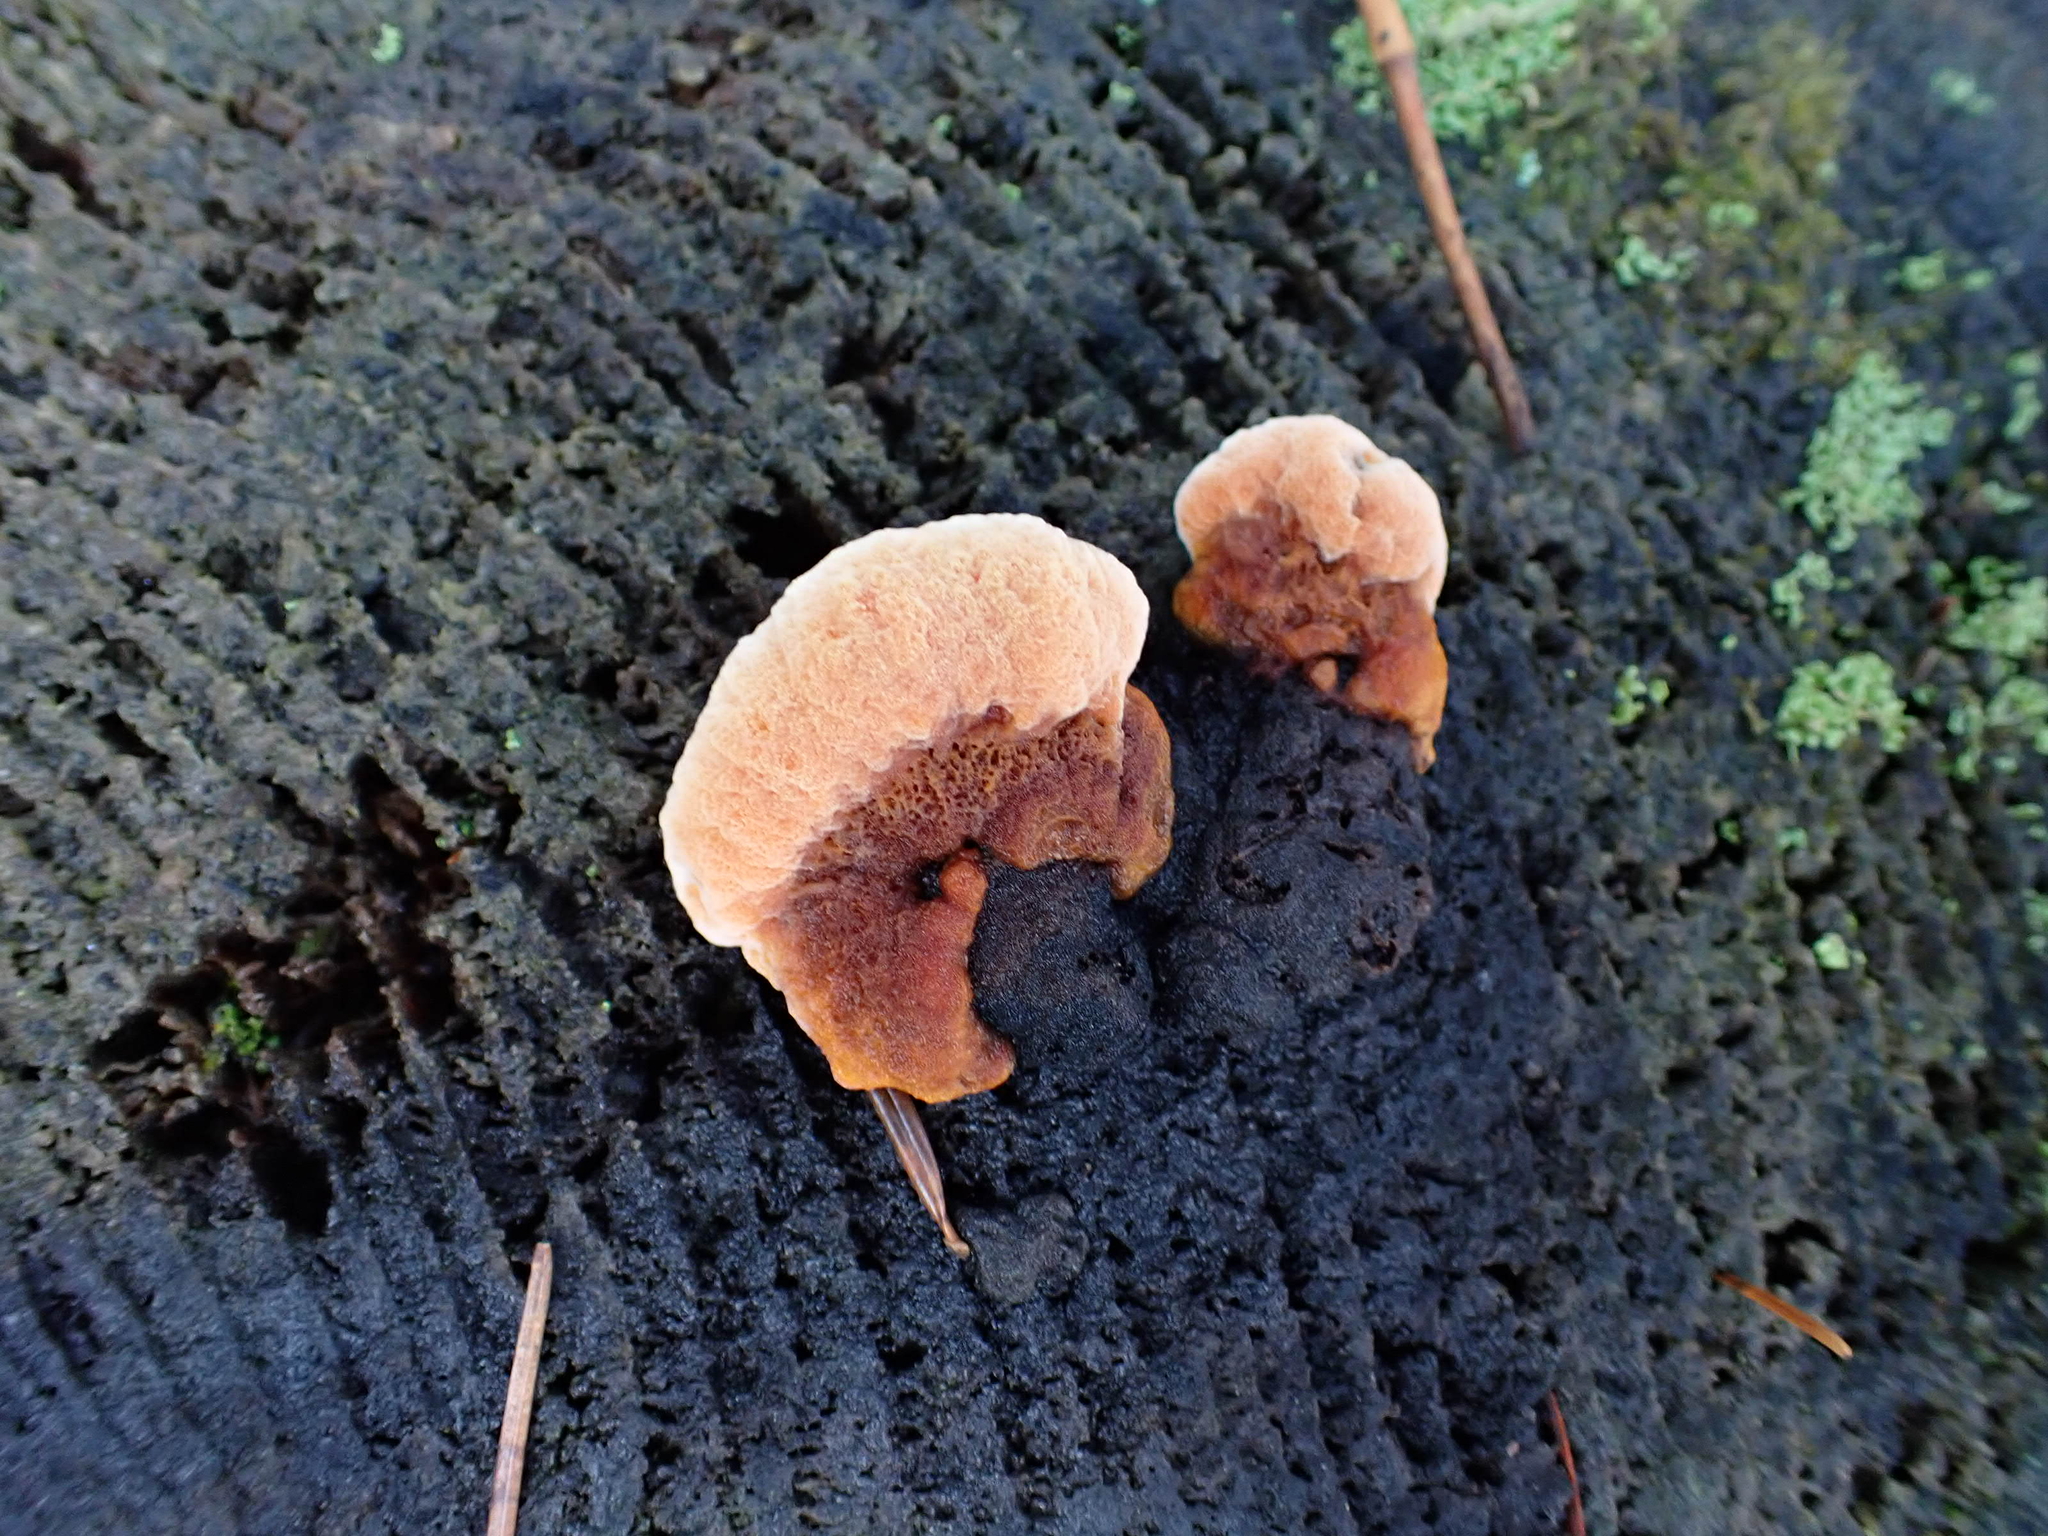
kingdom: Fungi
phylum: Basidiomycota
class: Agaricomycetes
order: Gloeophyllales
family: Gloeophyllaceae
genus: Gloeophyllum
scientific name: Gloeophyllum odoratum
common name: Anise mazegill
